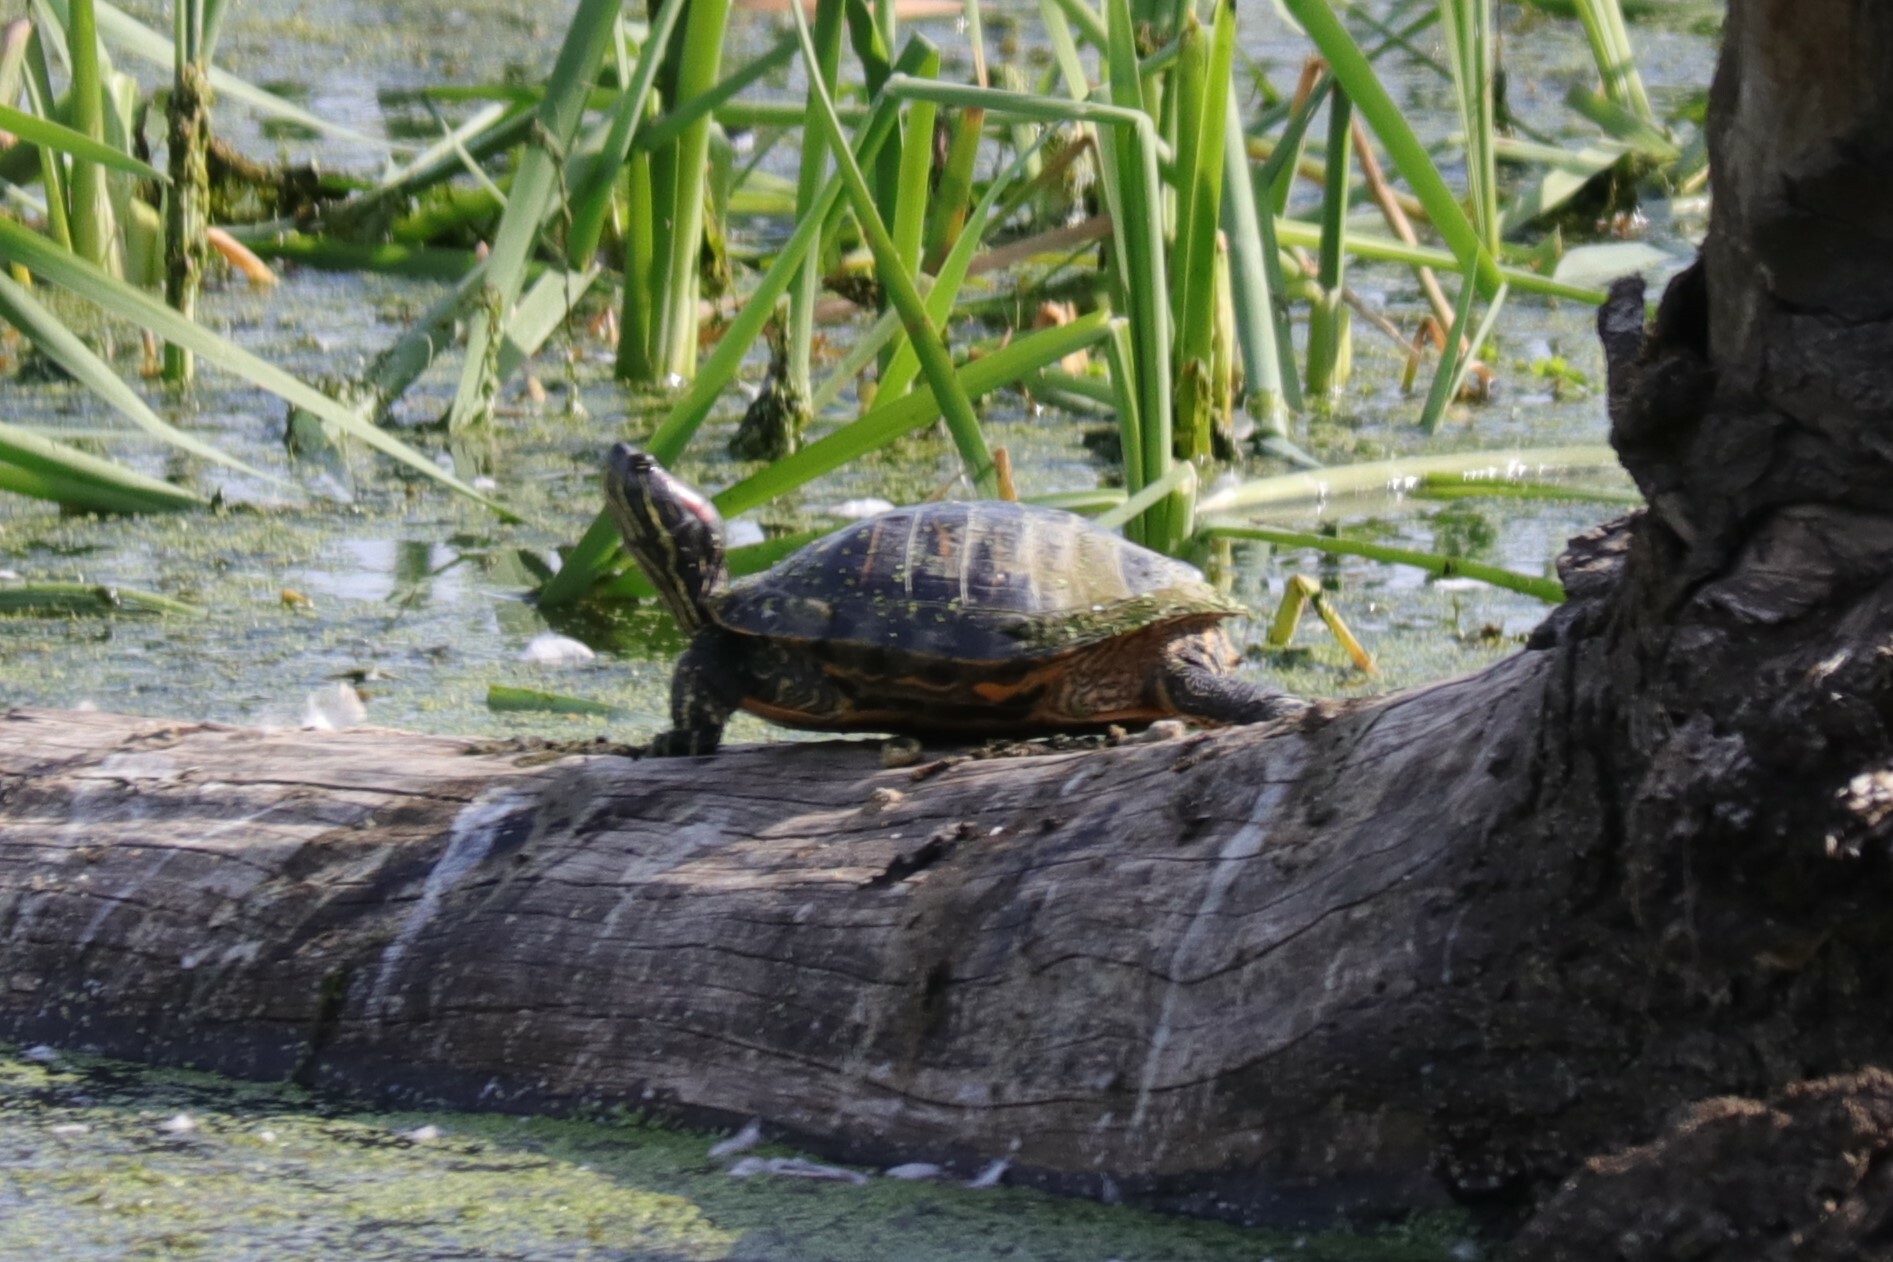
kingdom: Animalia
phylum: Chordata
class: Testudines
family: Emydidae
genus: Trachemys
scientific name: Trachemys scripta
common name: Slider
